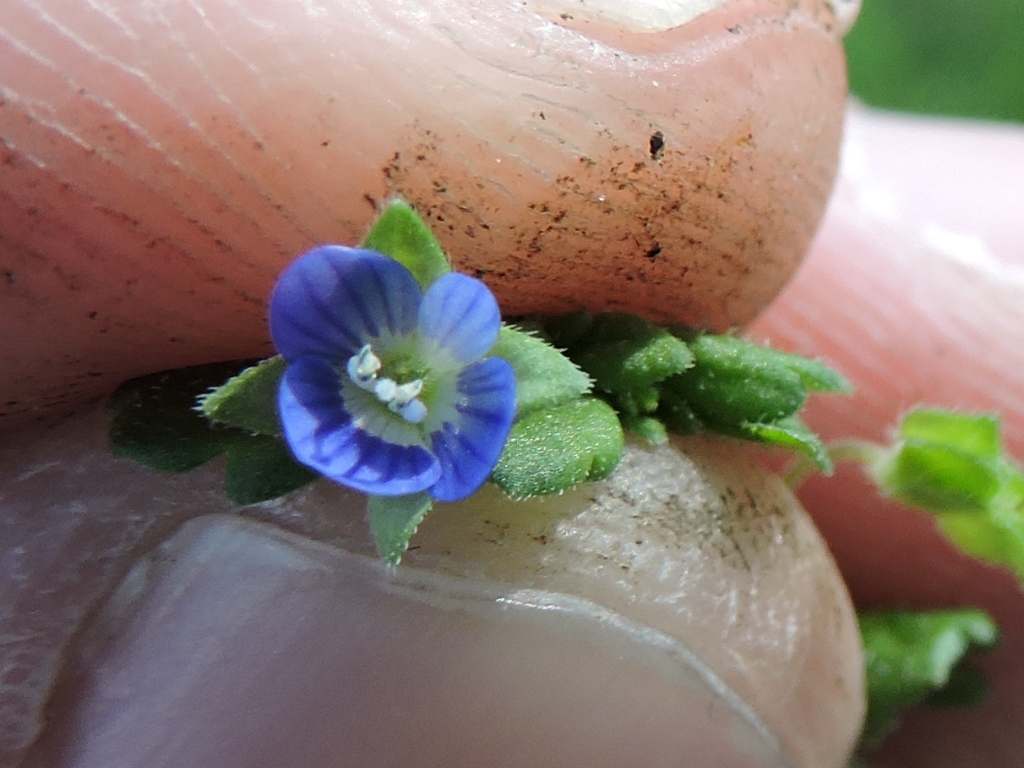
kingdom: Plantae
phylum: Tracheophyta
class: Magnoliopsida
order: Lamiales
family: Plantaginaceae
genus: Veronica
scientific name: Veronica persica
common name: Common field-speedwell
